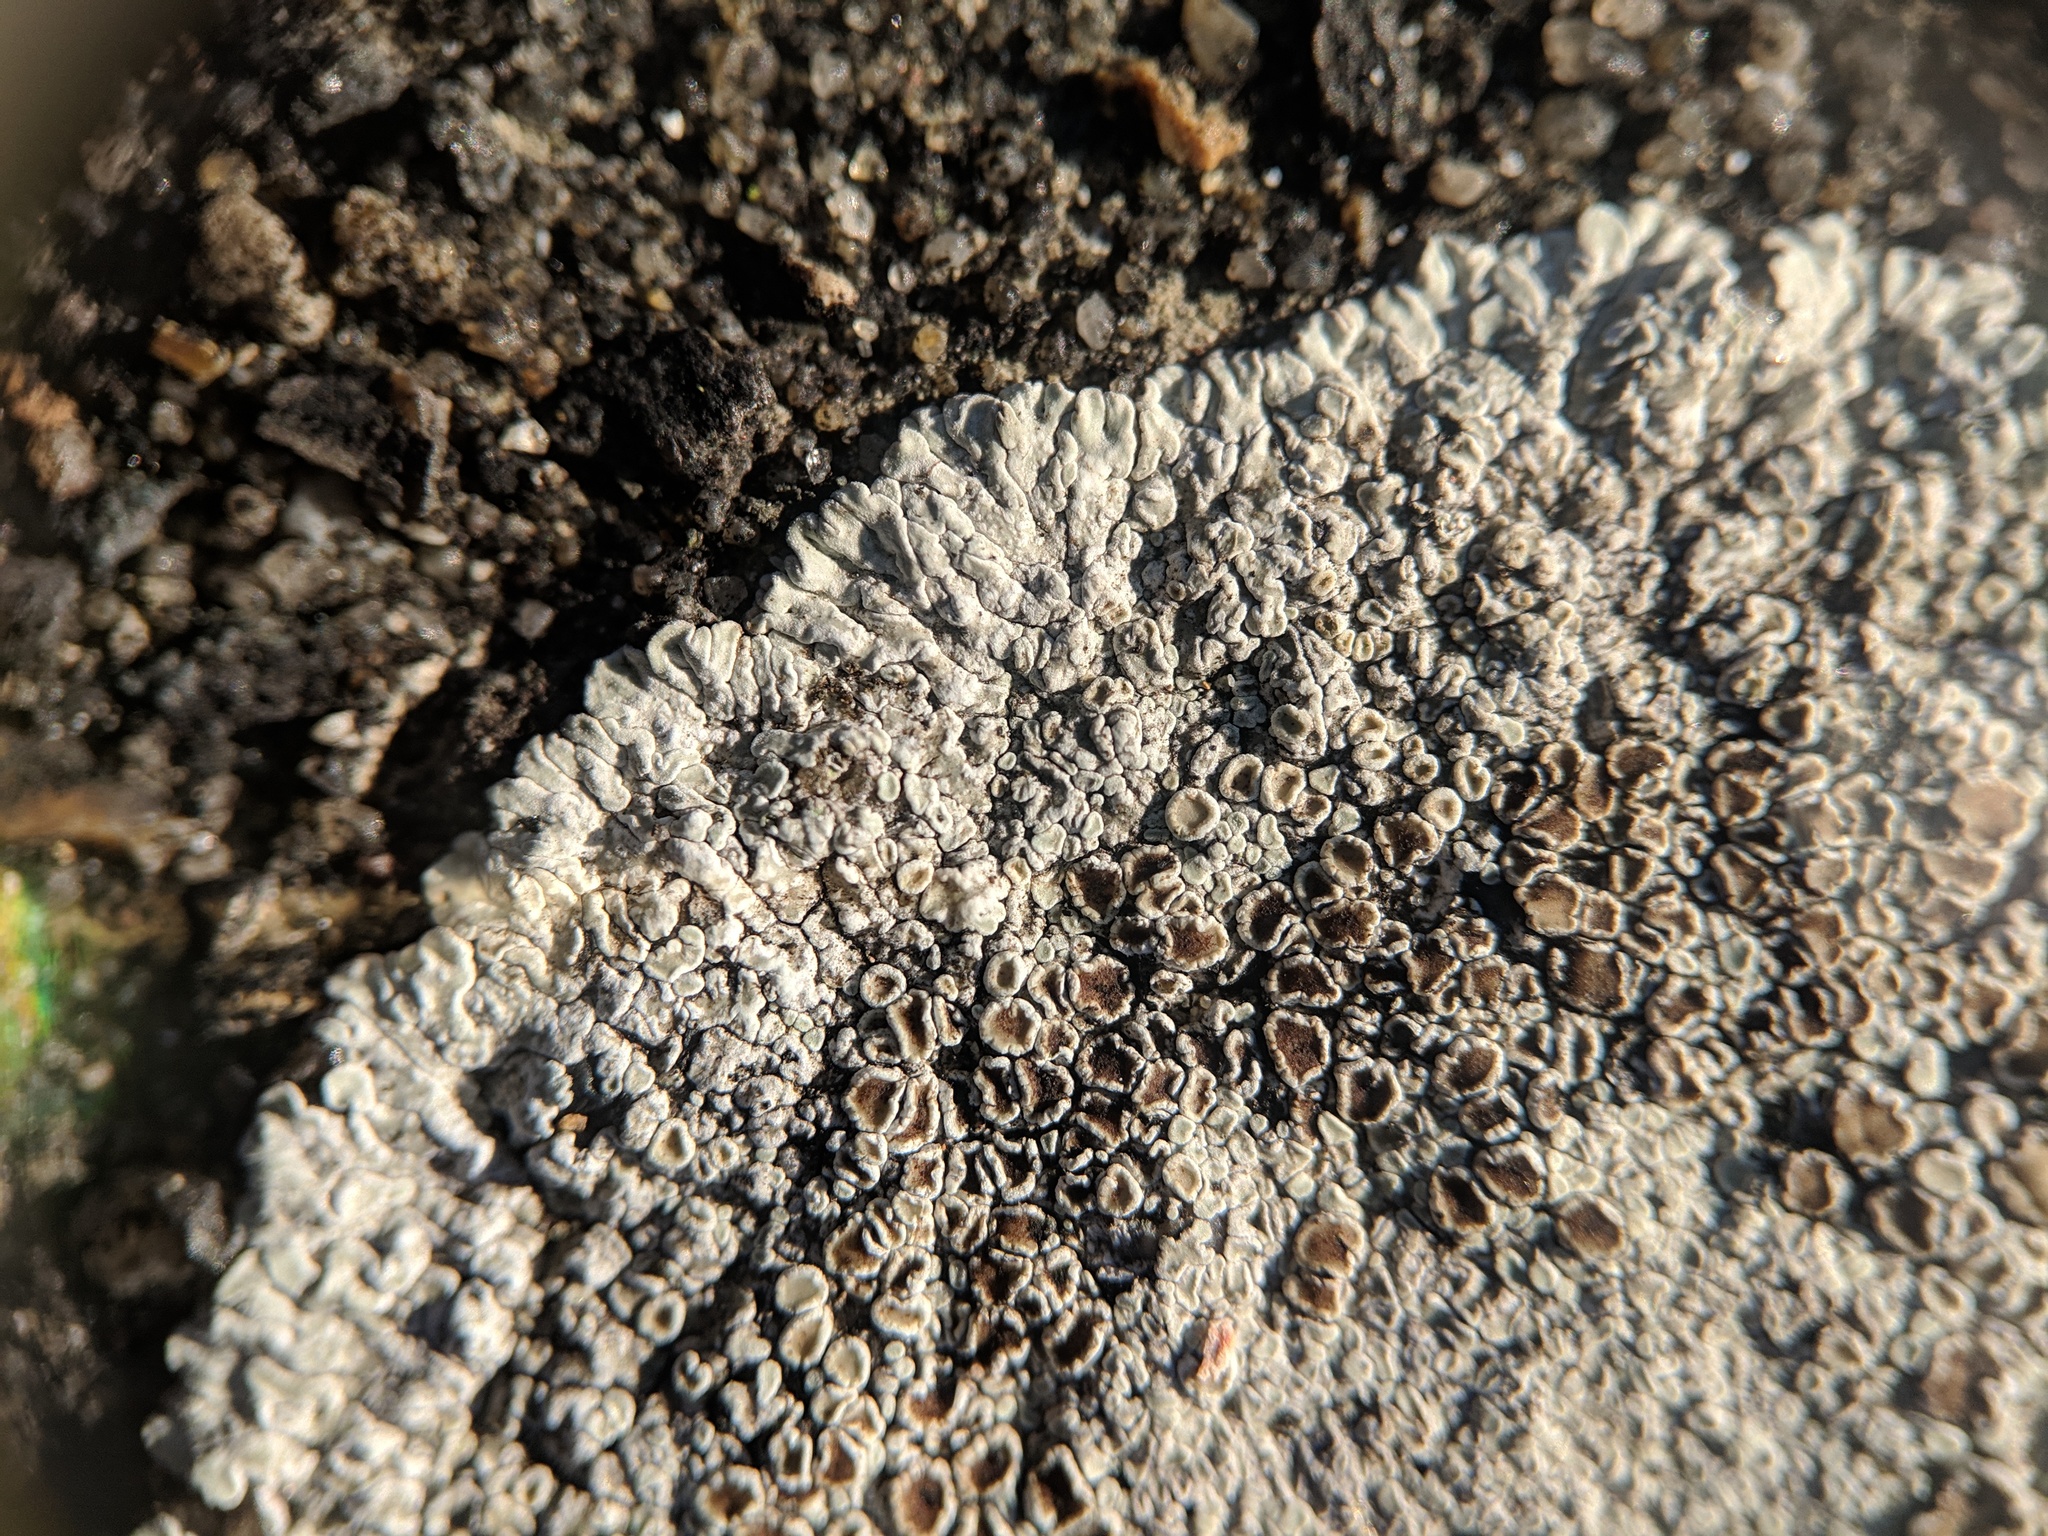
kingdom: Fungi
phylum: Ascomycota
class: Lecanoromycetes
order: Lecanorales
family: Lecanoraceae
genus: Protoparmeliopsis
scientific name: Protoparmeliopsis muralis
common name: Stonewall rim lichen
